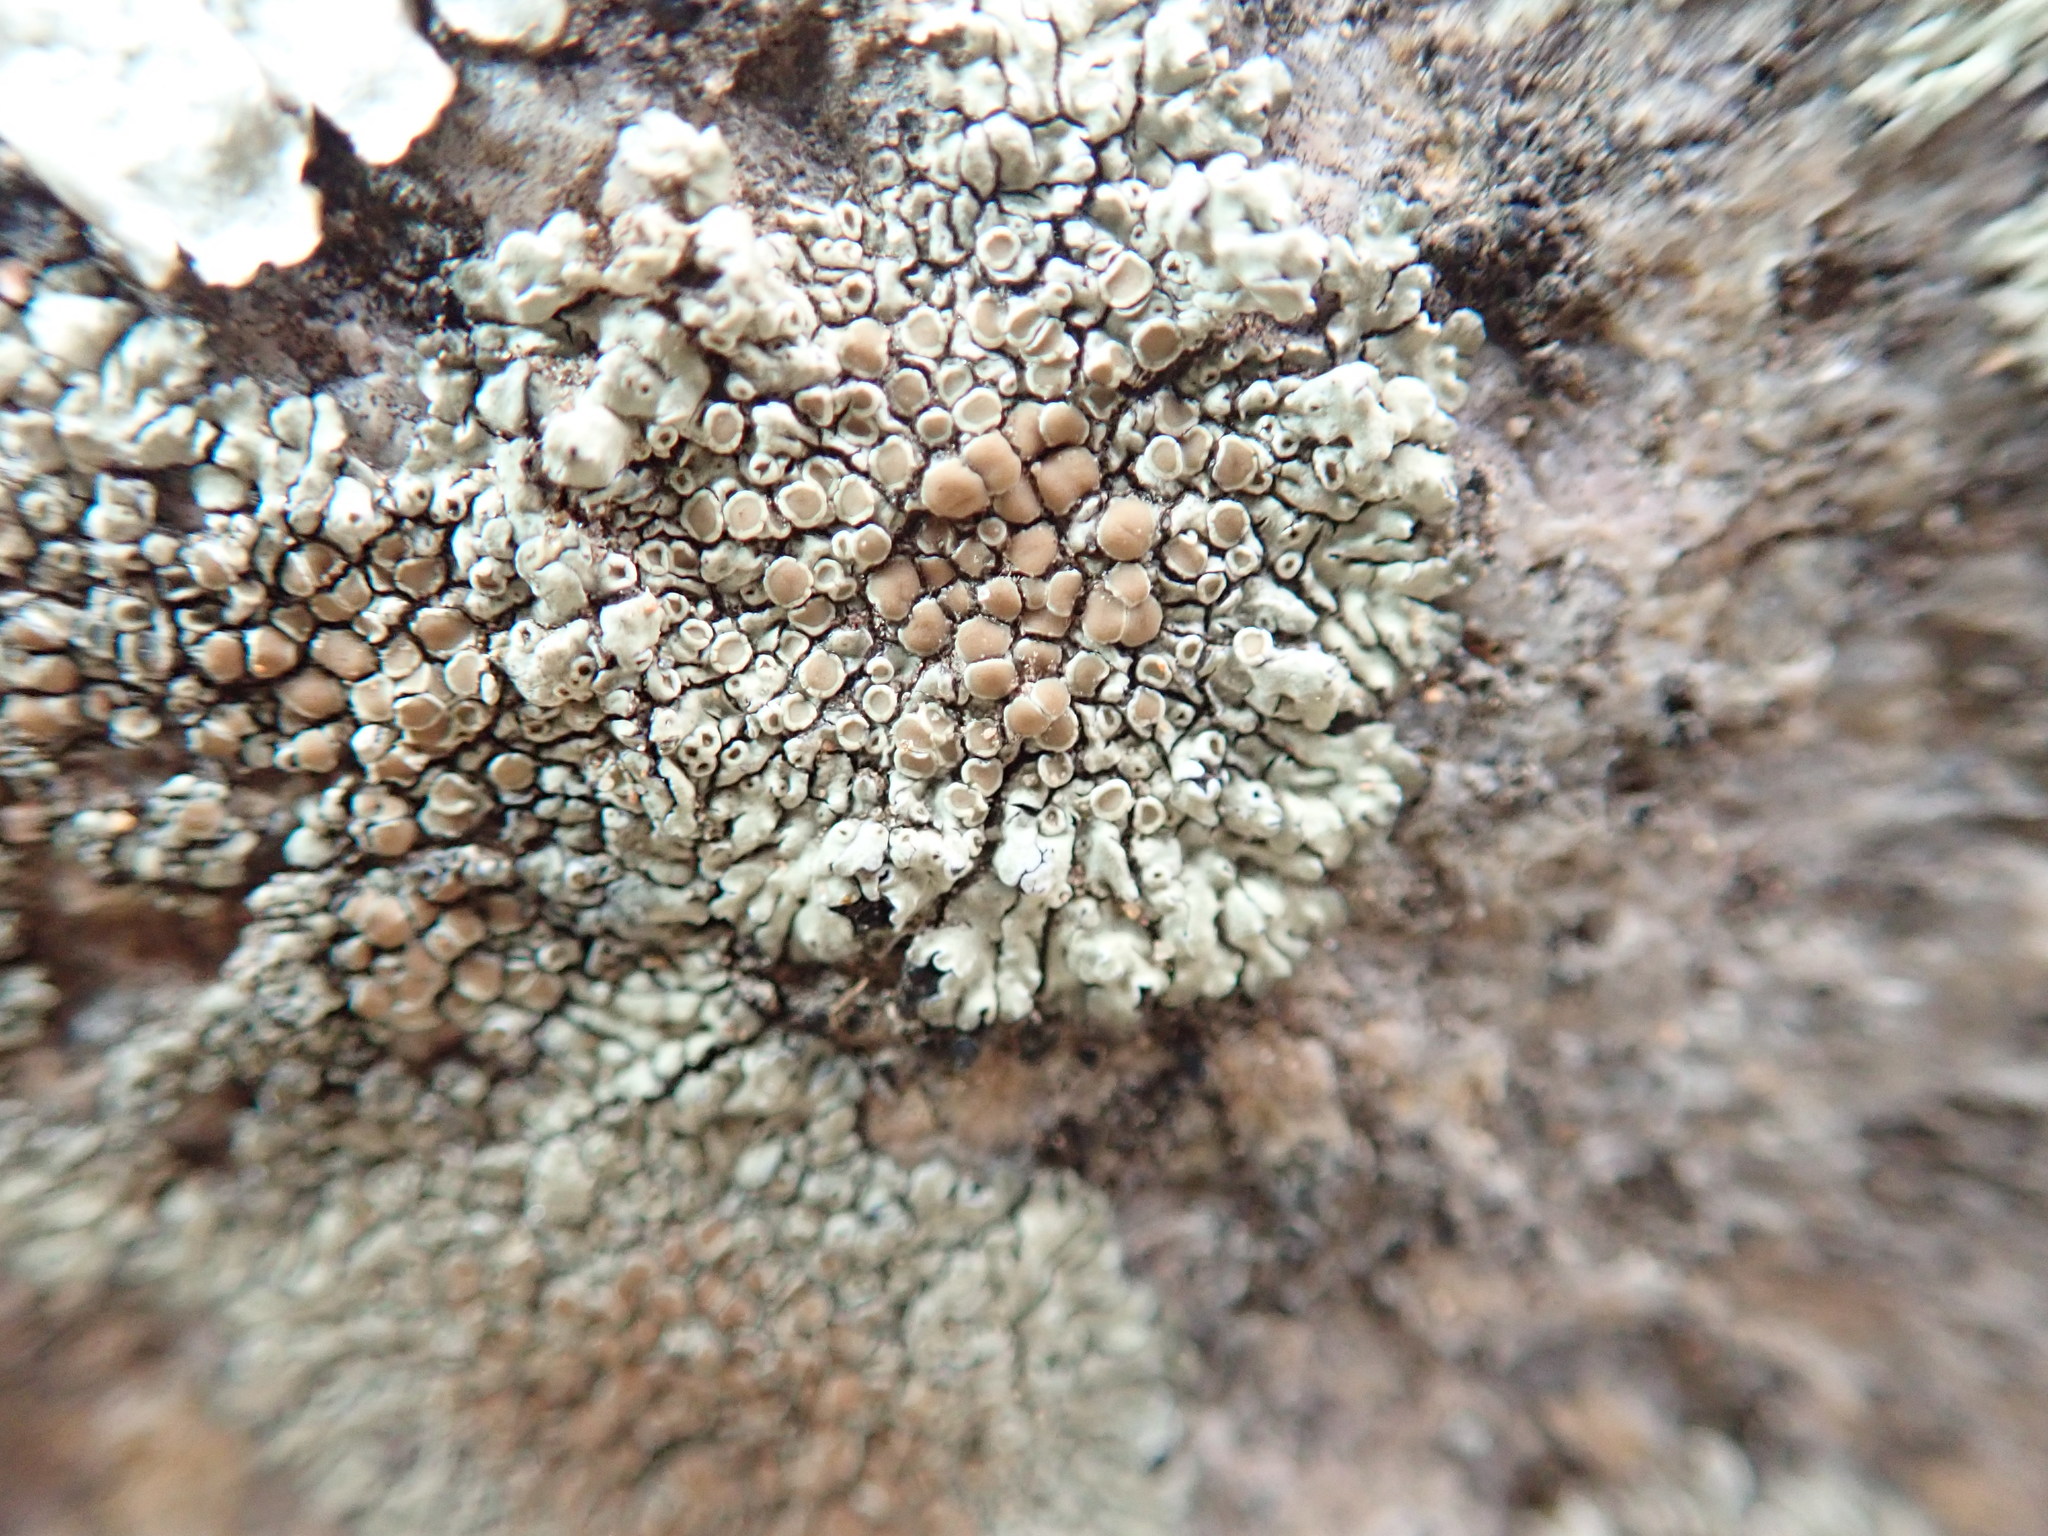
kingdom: Fungi
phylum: Ascomycota
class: Lecanoromycetes
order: Lecanorales
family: Lecanoraceae
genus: Protoparmeliopsis
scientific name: Protoparmeliopsis muralis
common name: Stonewall rim lichen
